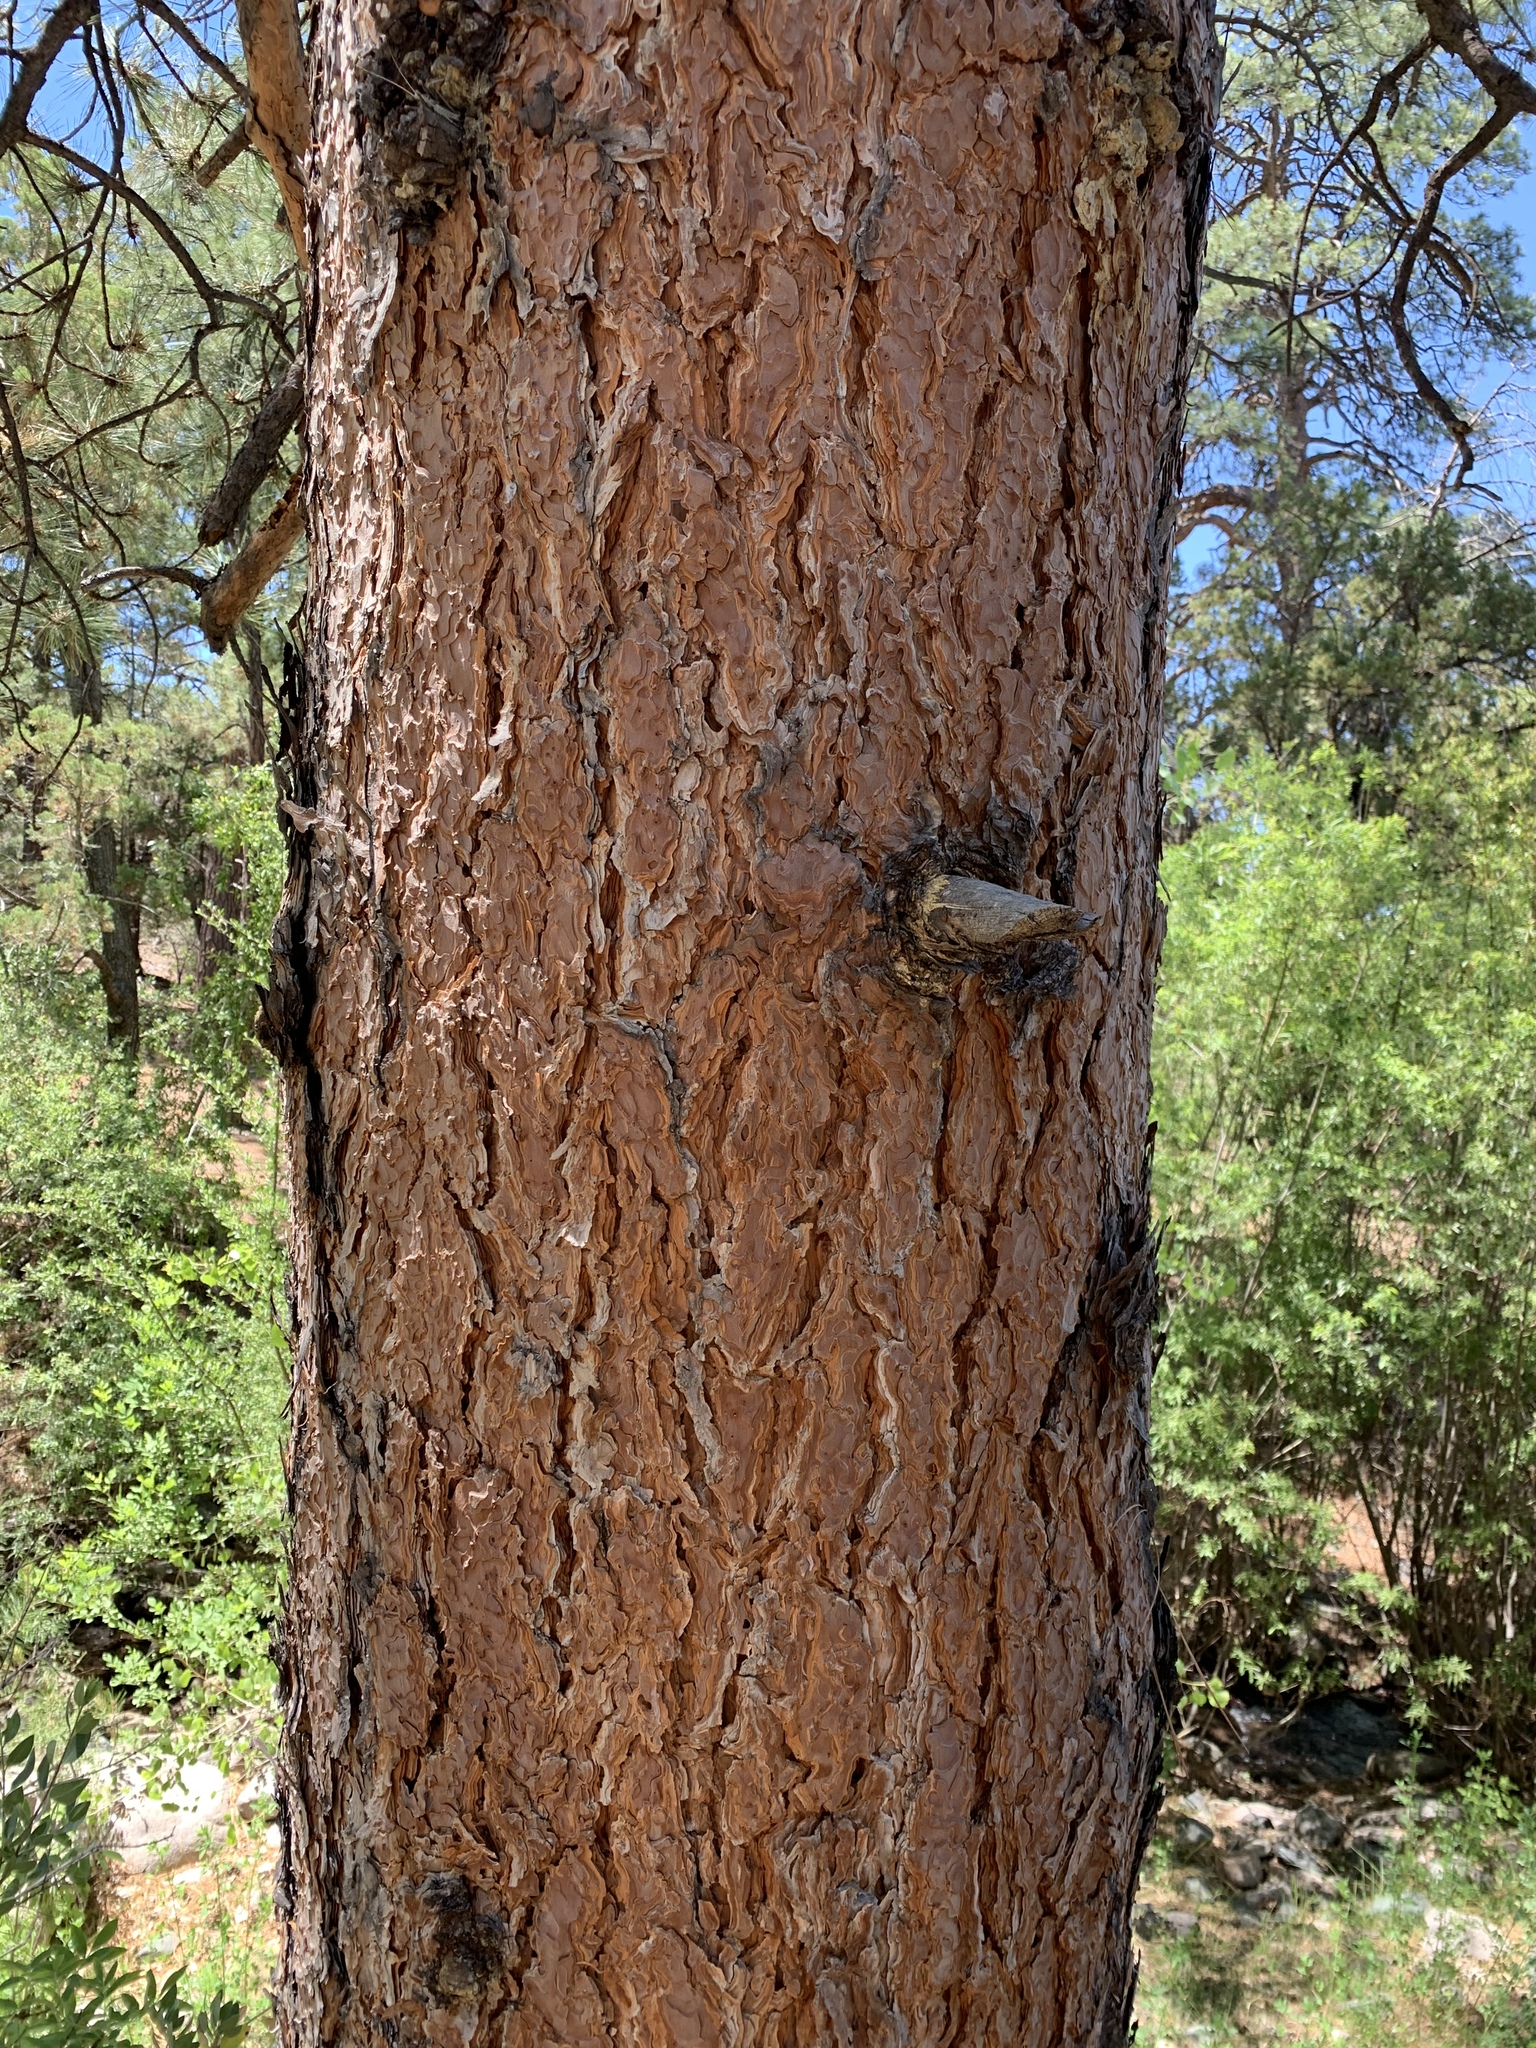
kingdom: Plantae
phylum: Tracheophyta
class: Pinopsida
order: Pinales
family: Pinaceae
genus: Pinus
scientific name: Pinus ponderosa
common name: Western yellow-pine
